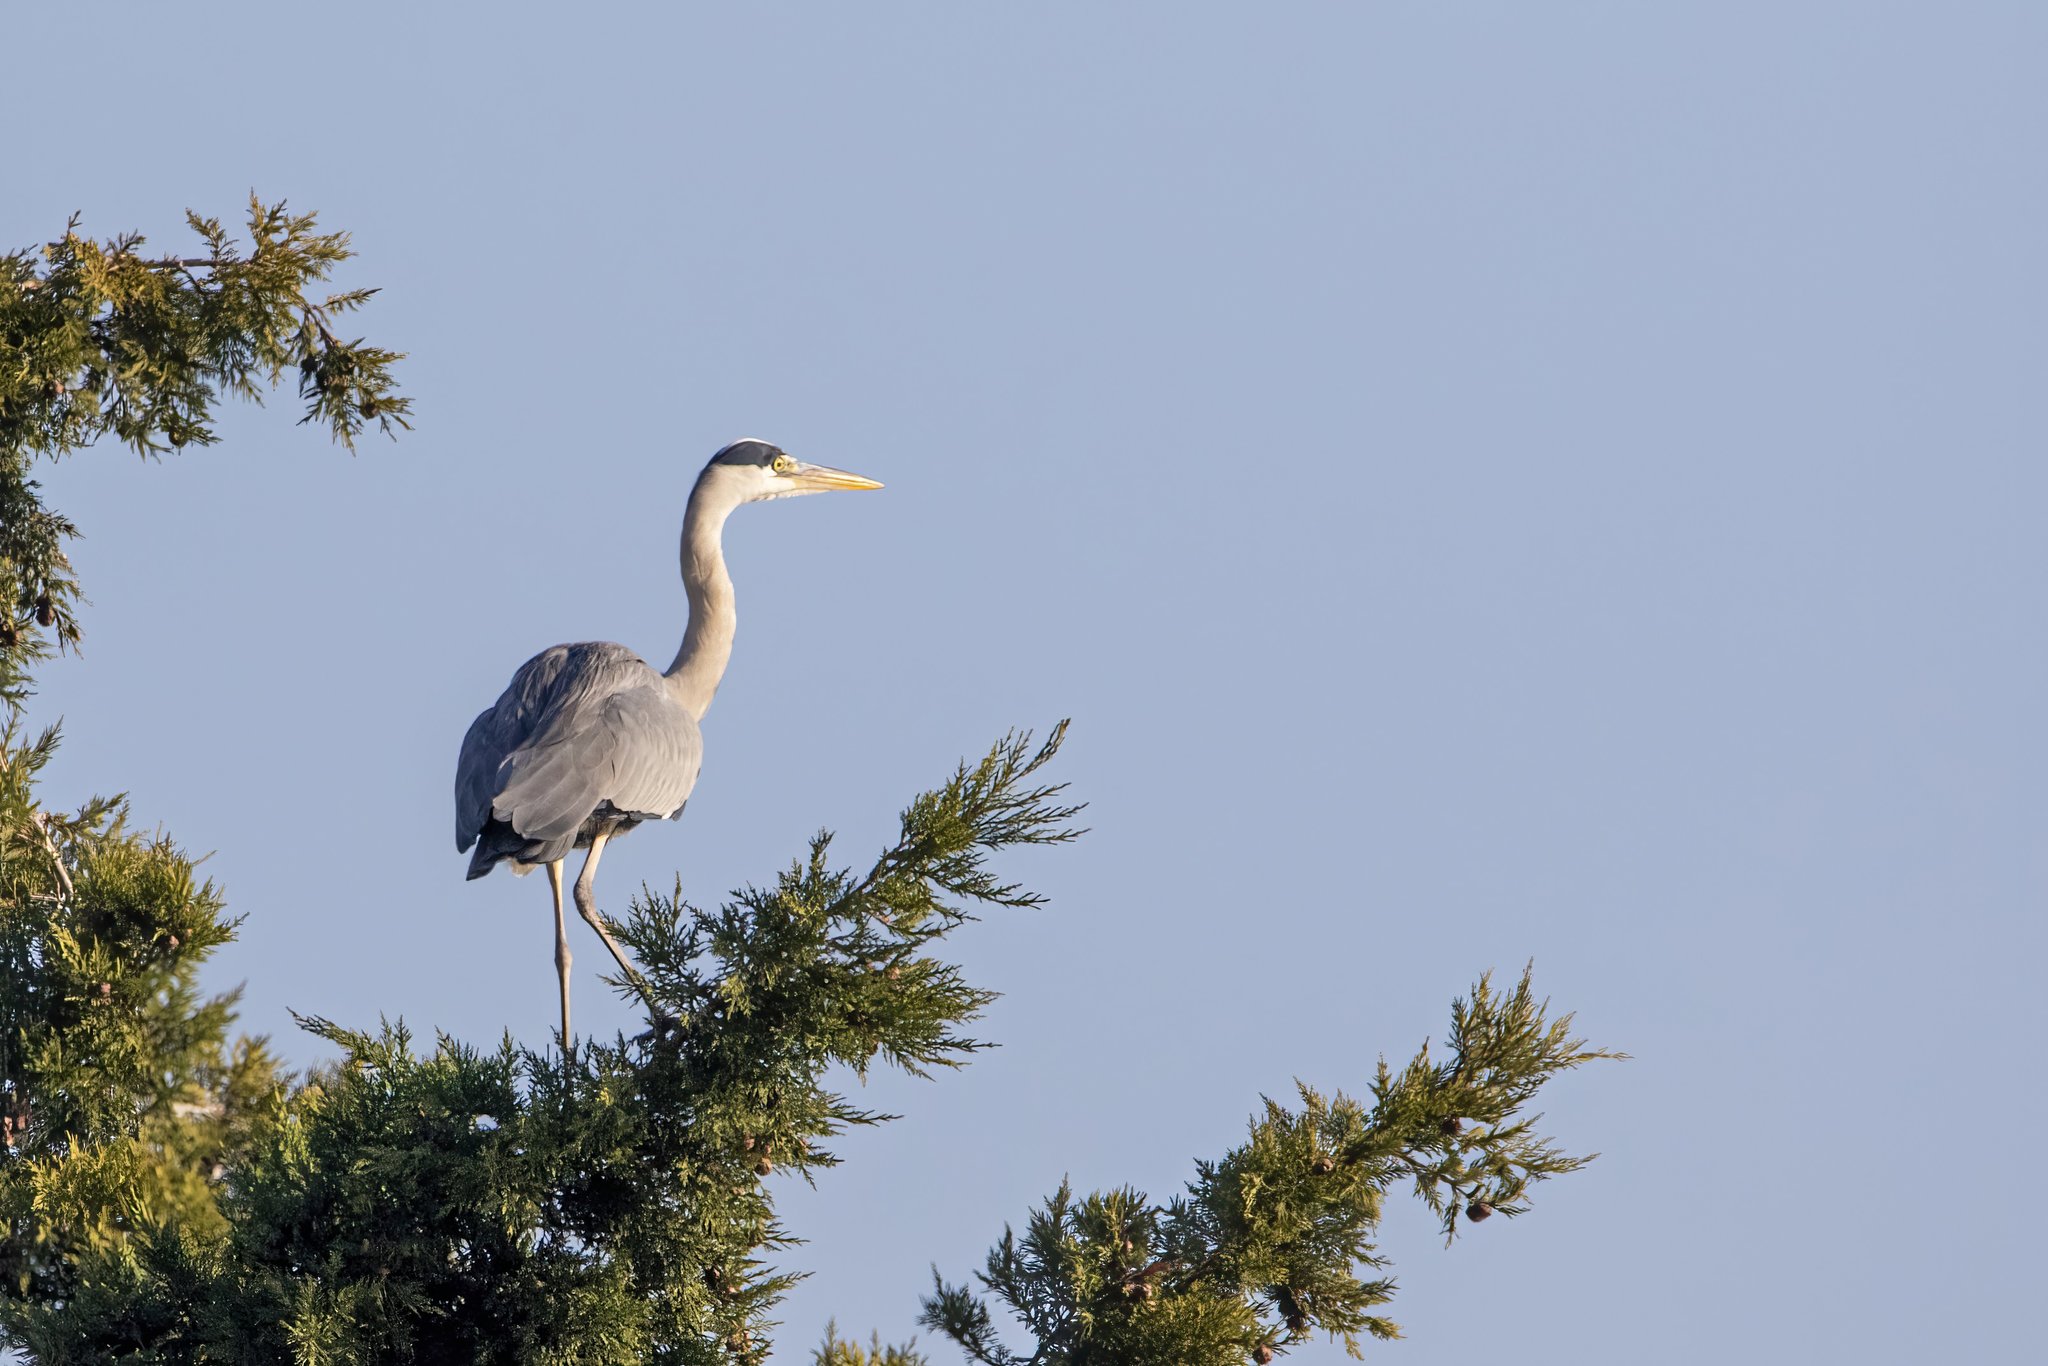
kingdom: Animalia
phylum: Chordata
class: Aves
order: Pelecaniformes
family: Ardeidae
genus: Ardea
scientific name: Ardea cinerea
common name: Grey heron
